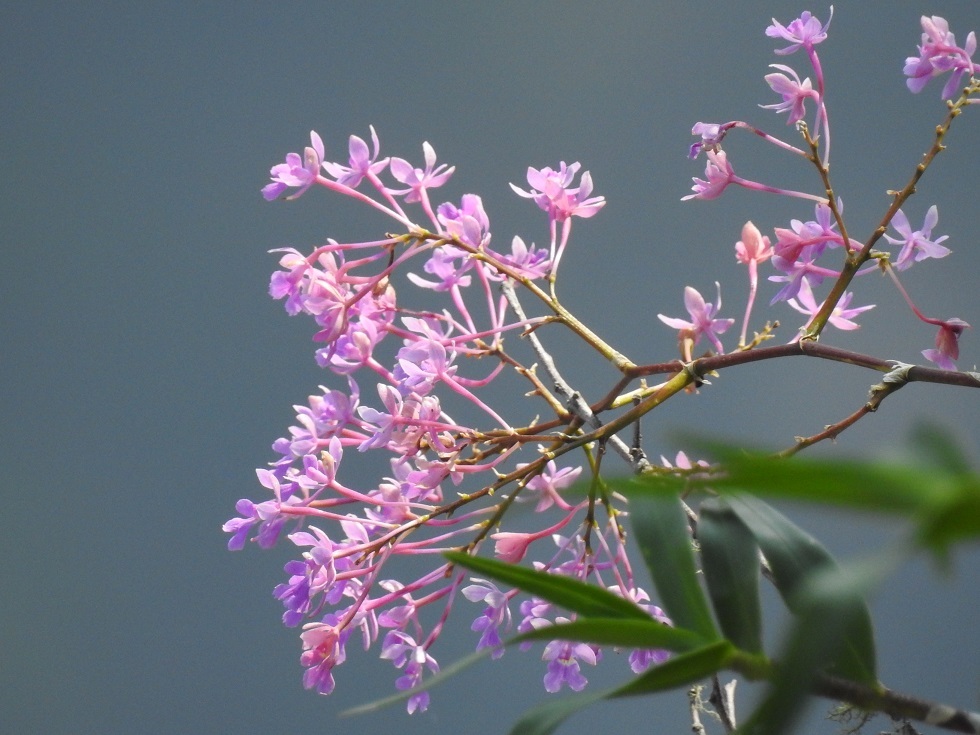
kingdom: Plantae
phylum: Tracheophyta
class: Liliopsida
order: Asparagales
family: Orchidaceae
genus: Epidendrum
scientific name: Epidendrum myrianthum
